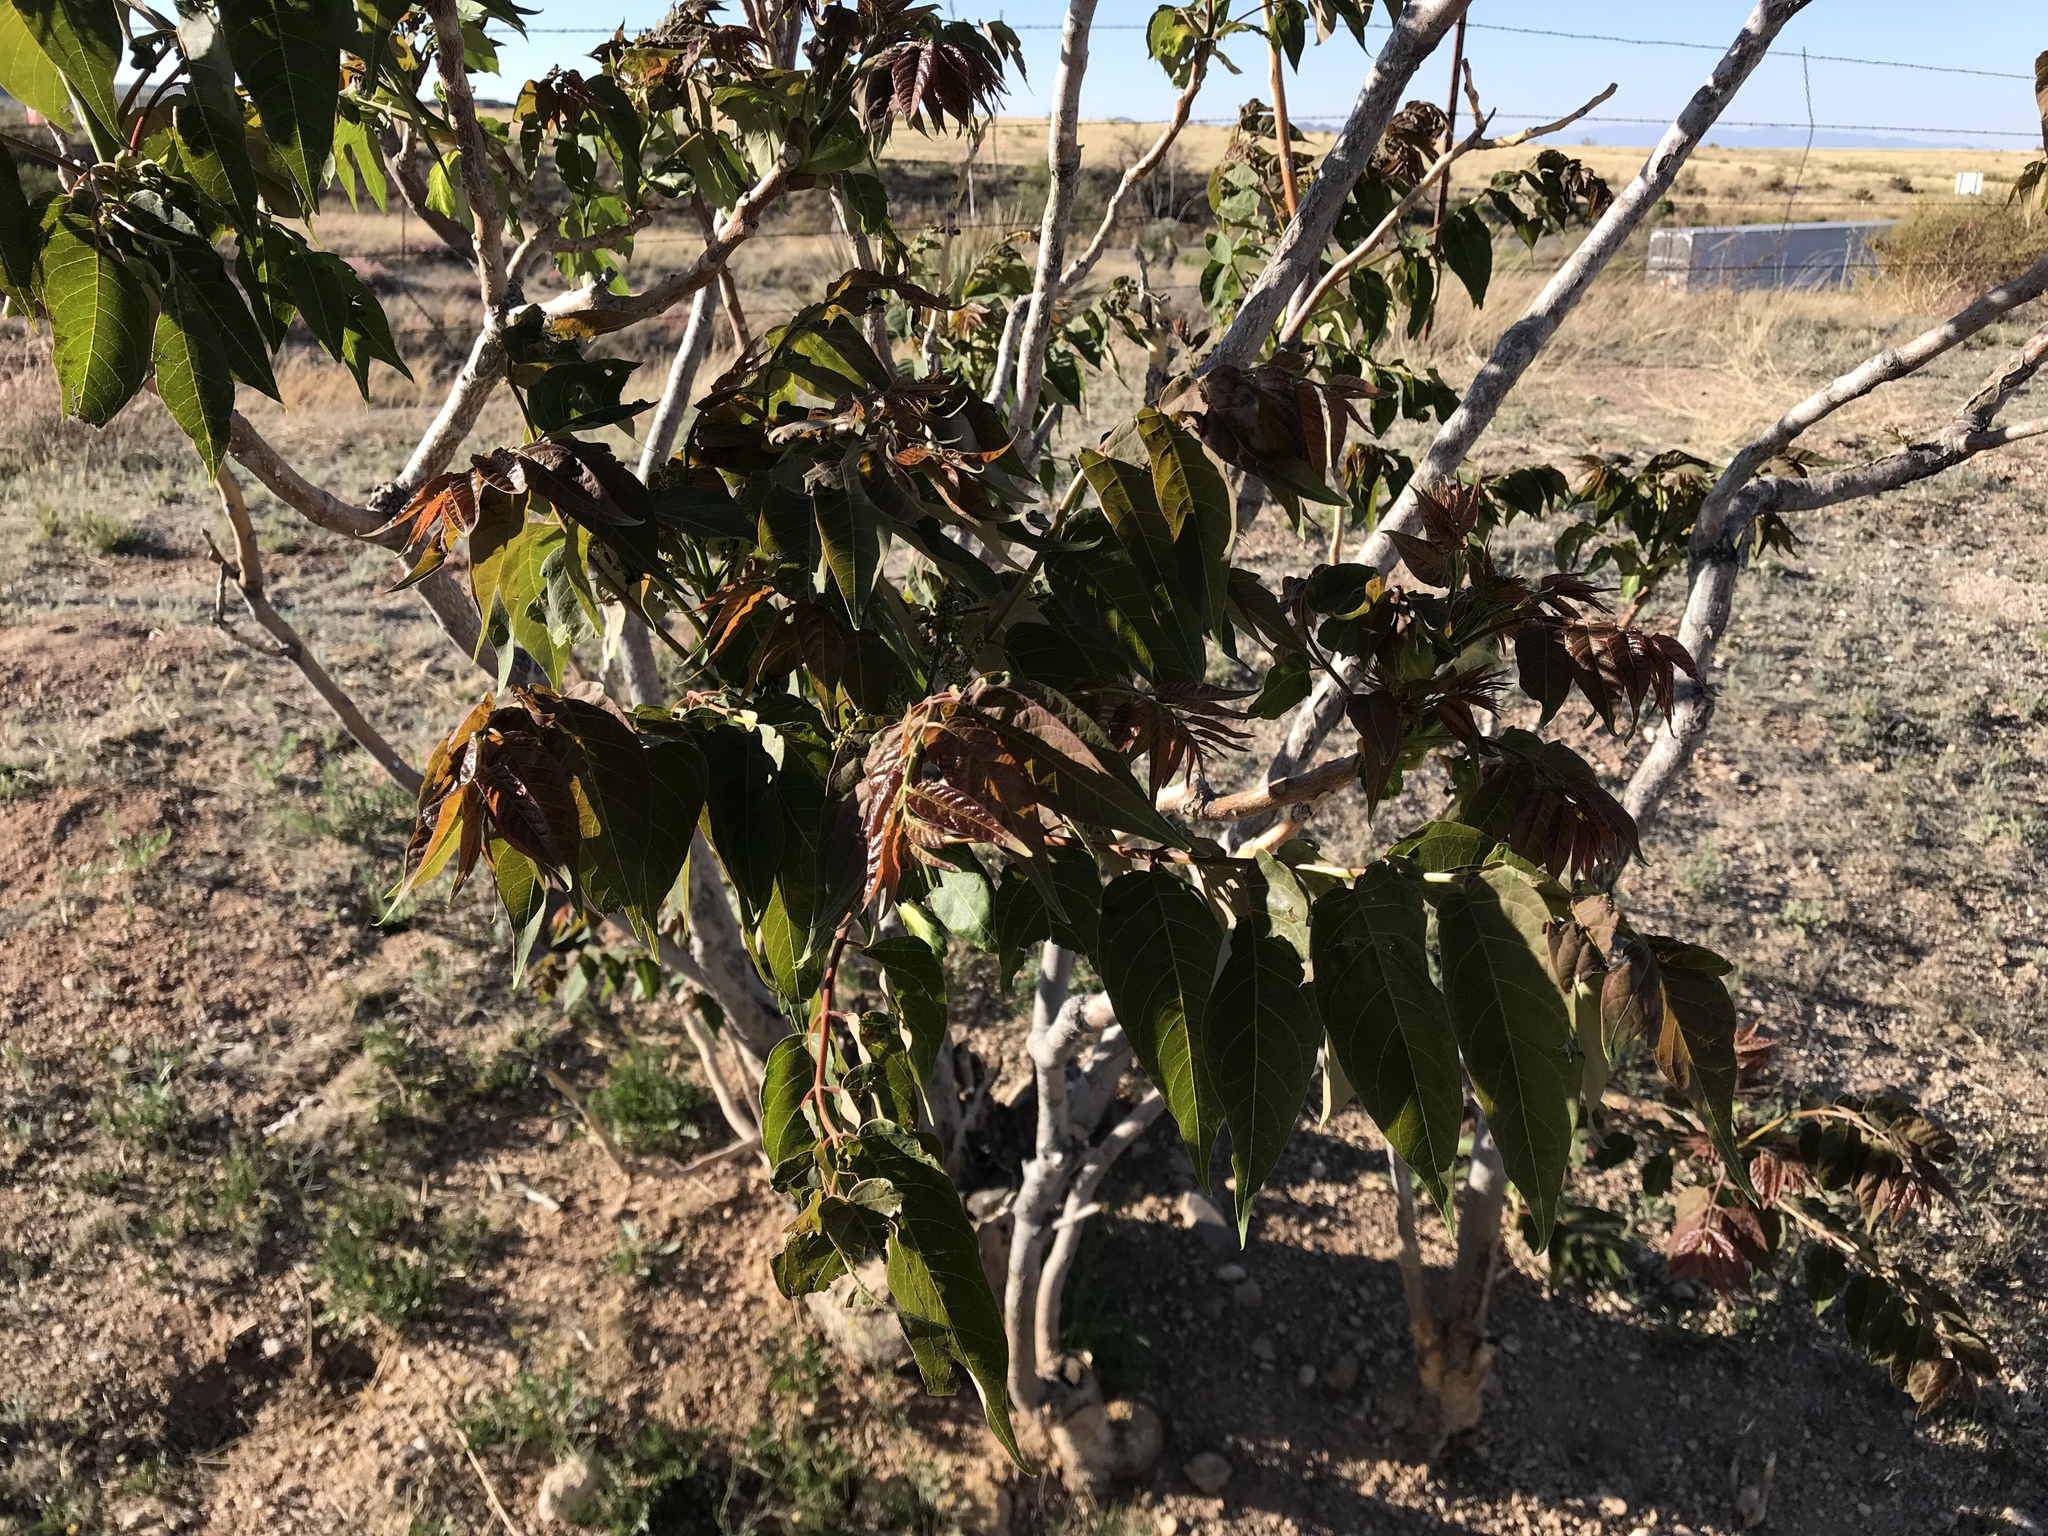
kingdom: Plantae
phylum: Tracheophyta
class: Magnoliopsida
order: Sapindales
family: Simaroubaceae
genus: Ailanthus
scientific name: Ailanthus altissima
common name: Tree-of-heaven
